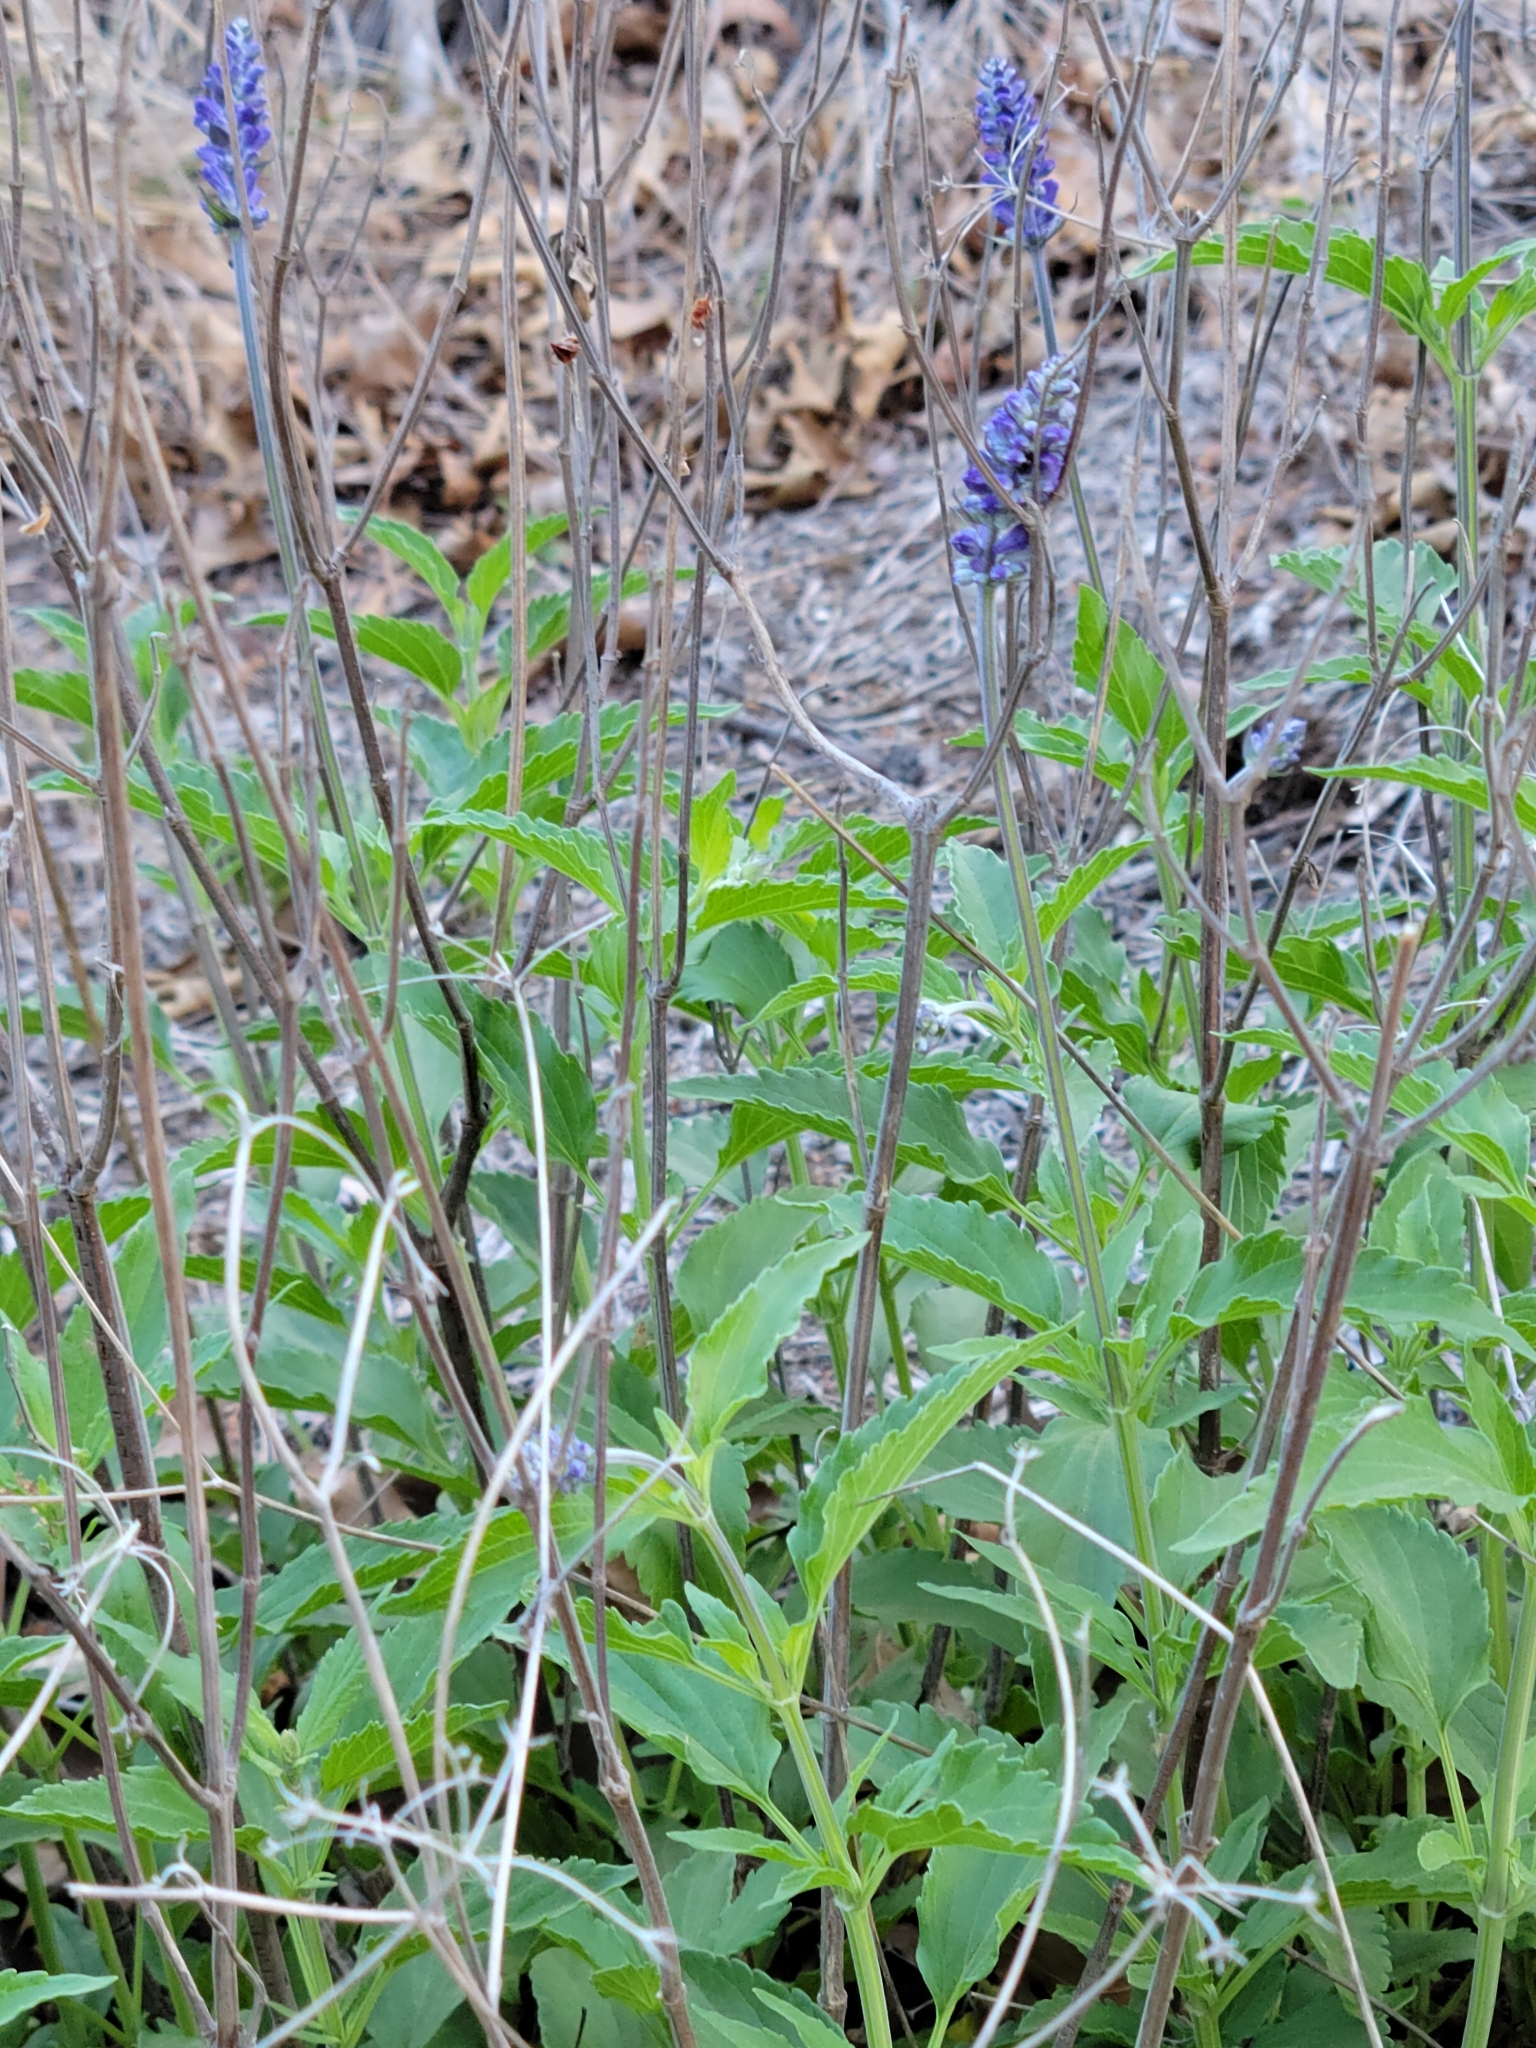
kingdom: Plantae
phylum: Tracheophyta
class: Magnoliopsida
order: Lamiales
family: Lamiaceae
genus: Salvia
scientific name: Salvia farinacea
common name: Mealy sage
